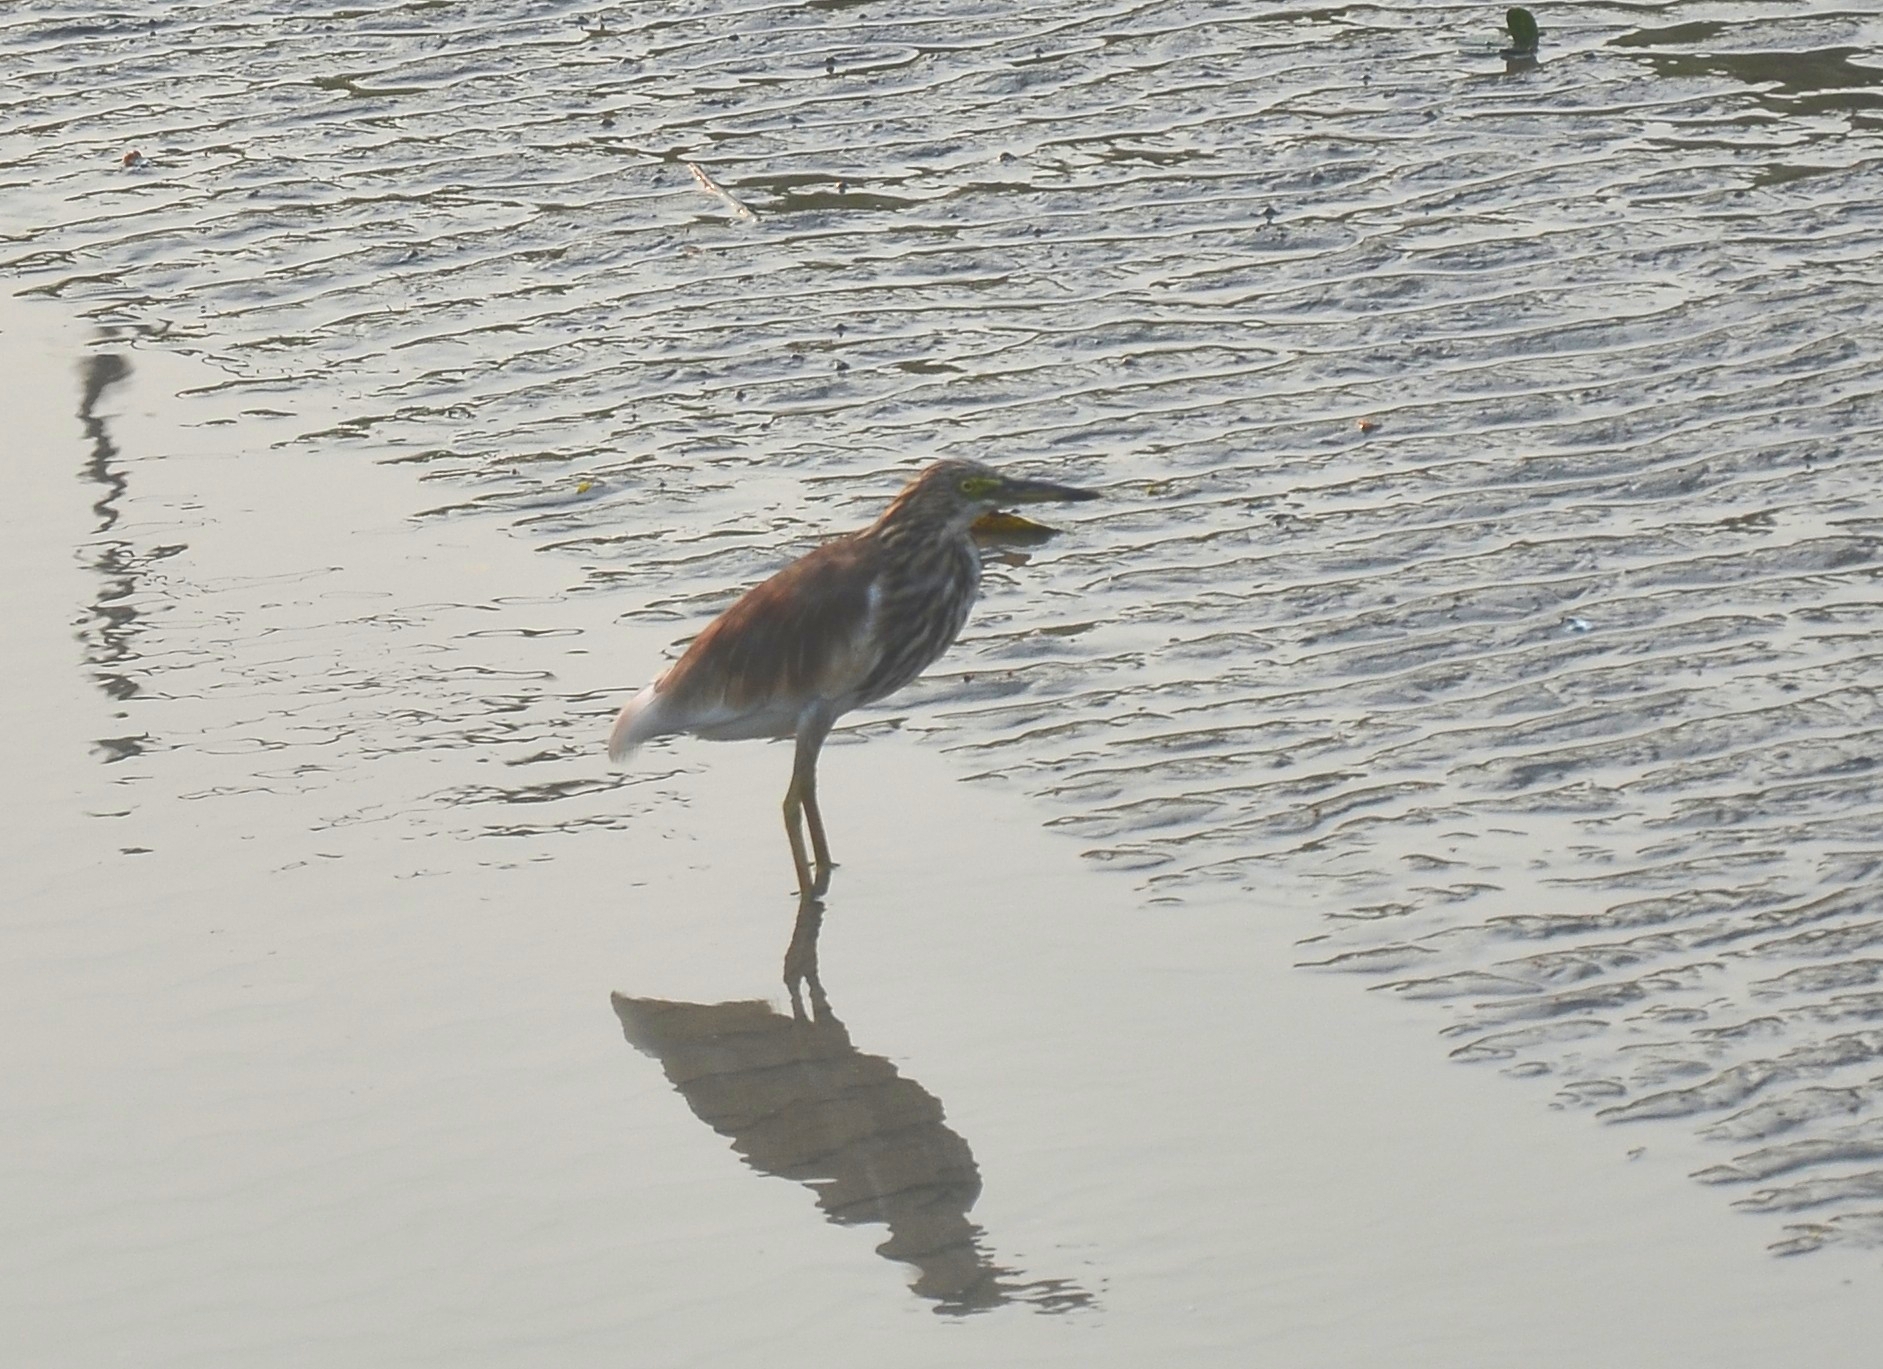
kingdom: Animalia
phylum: Chordata
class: Aves
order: Pelecaniformes
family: Ardeidae
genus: Ardeola
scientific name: Ardeola grayii
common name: Indian pond heron
